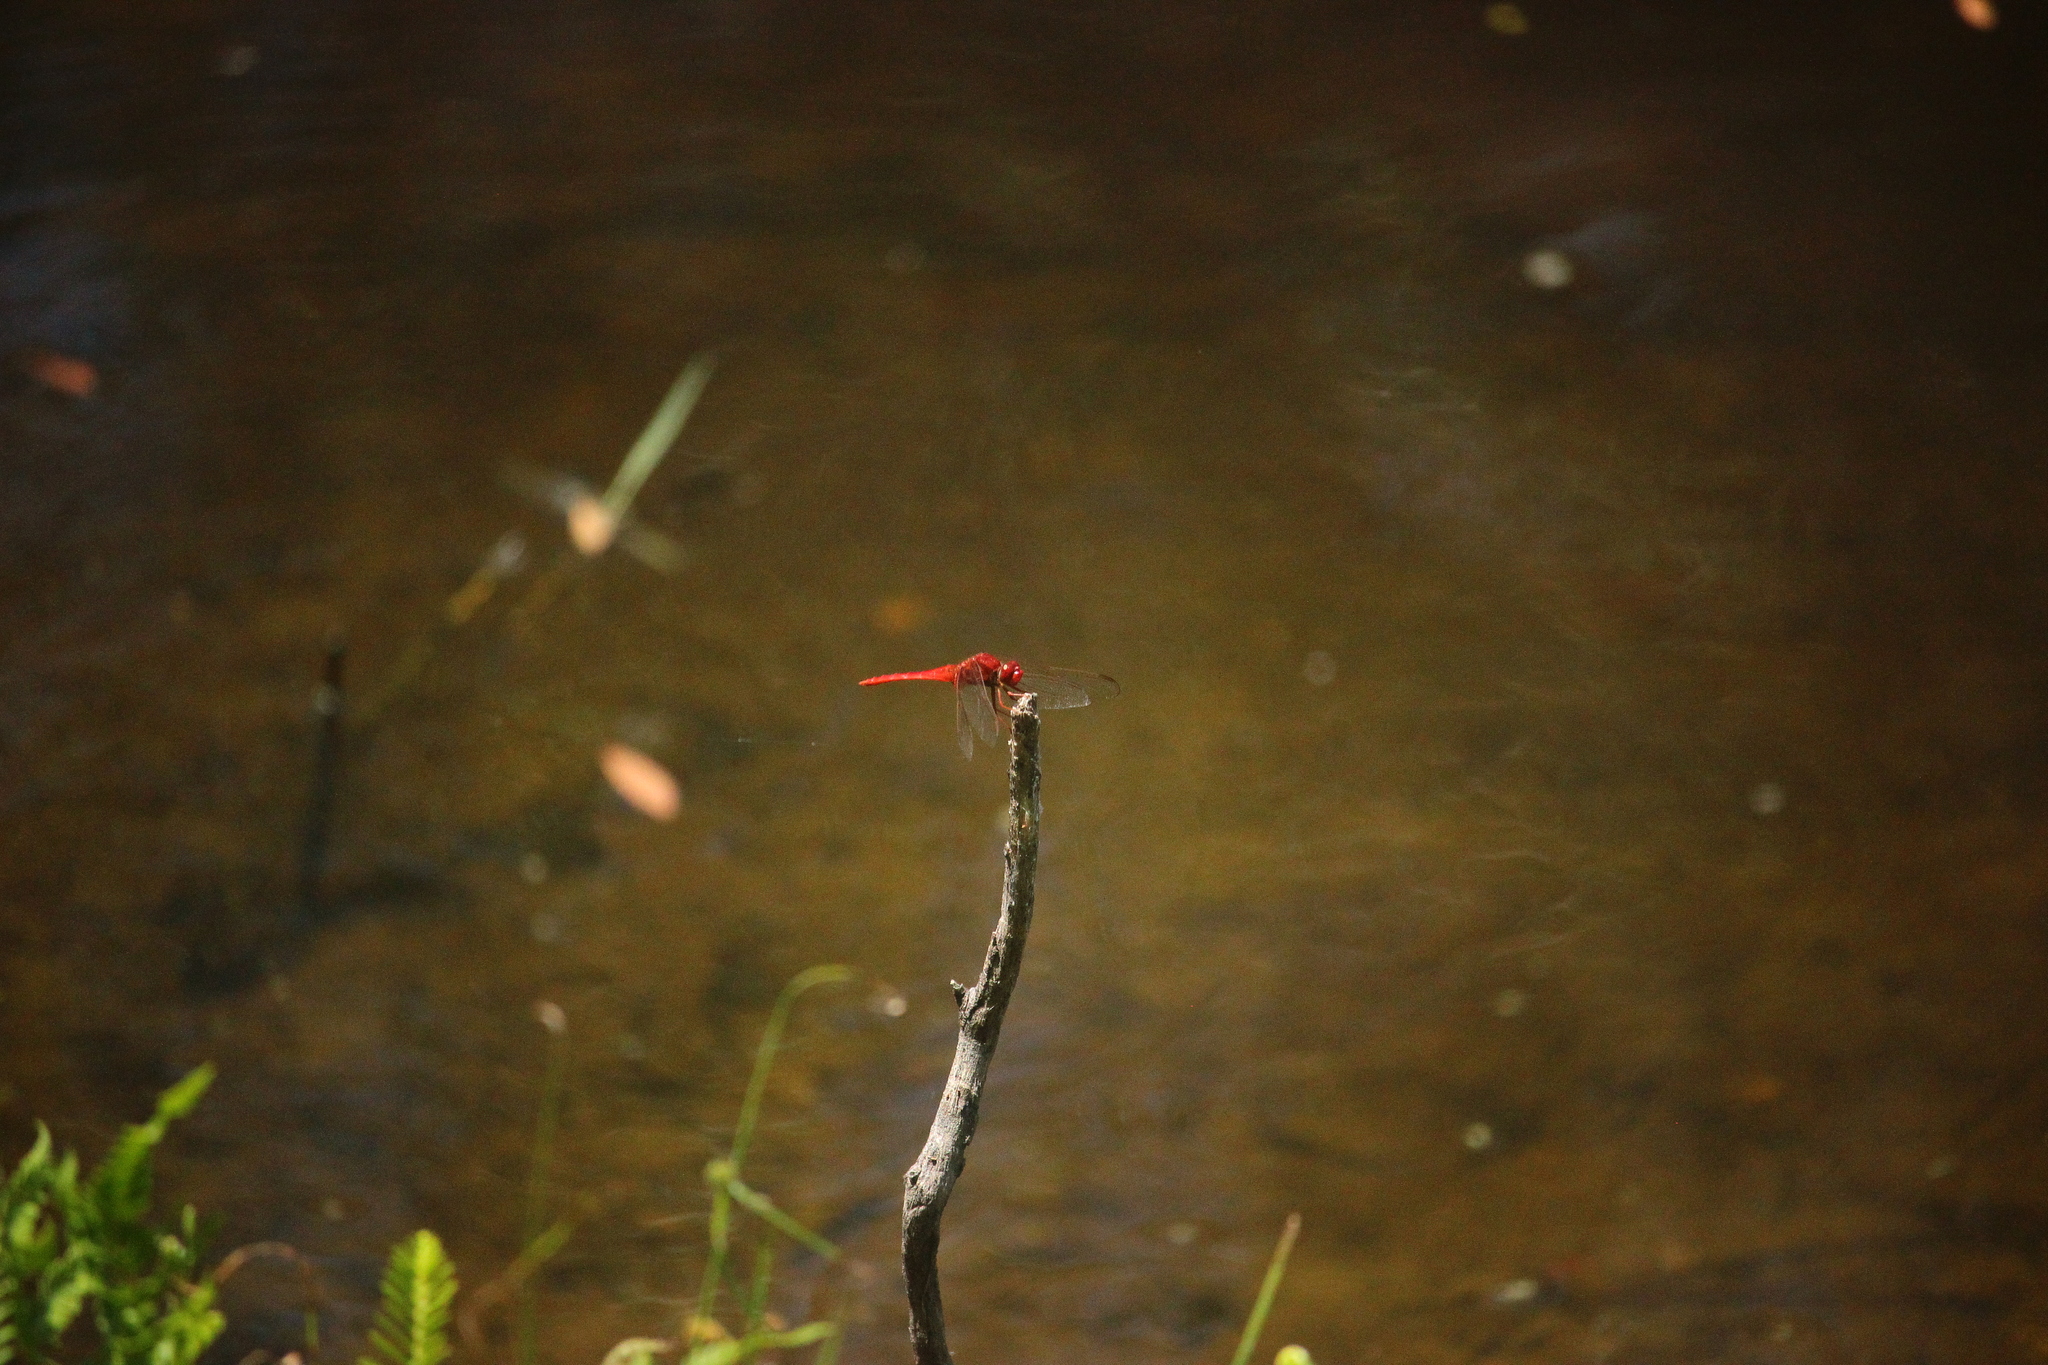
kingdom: Animalia
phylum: Arthropoda
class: Insecta
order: Odonata
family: Libellulidae
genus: Crocothemis
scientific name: Crocothemis servilia
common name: Scarlet skimmer
